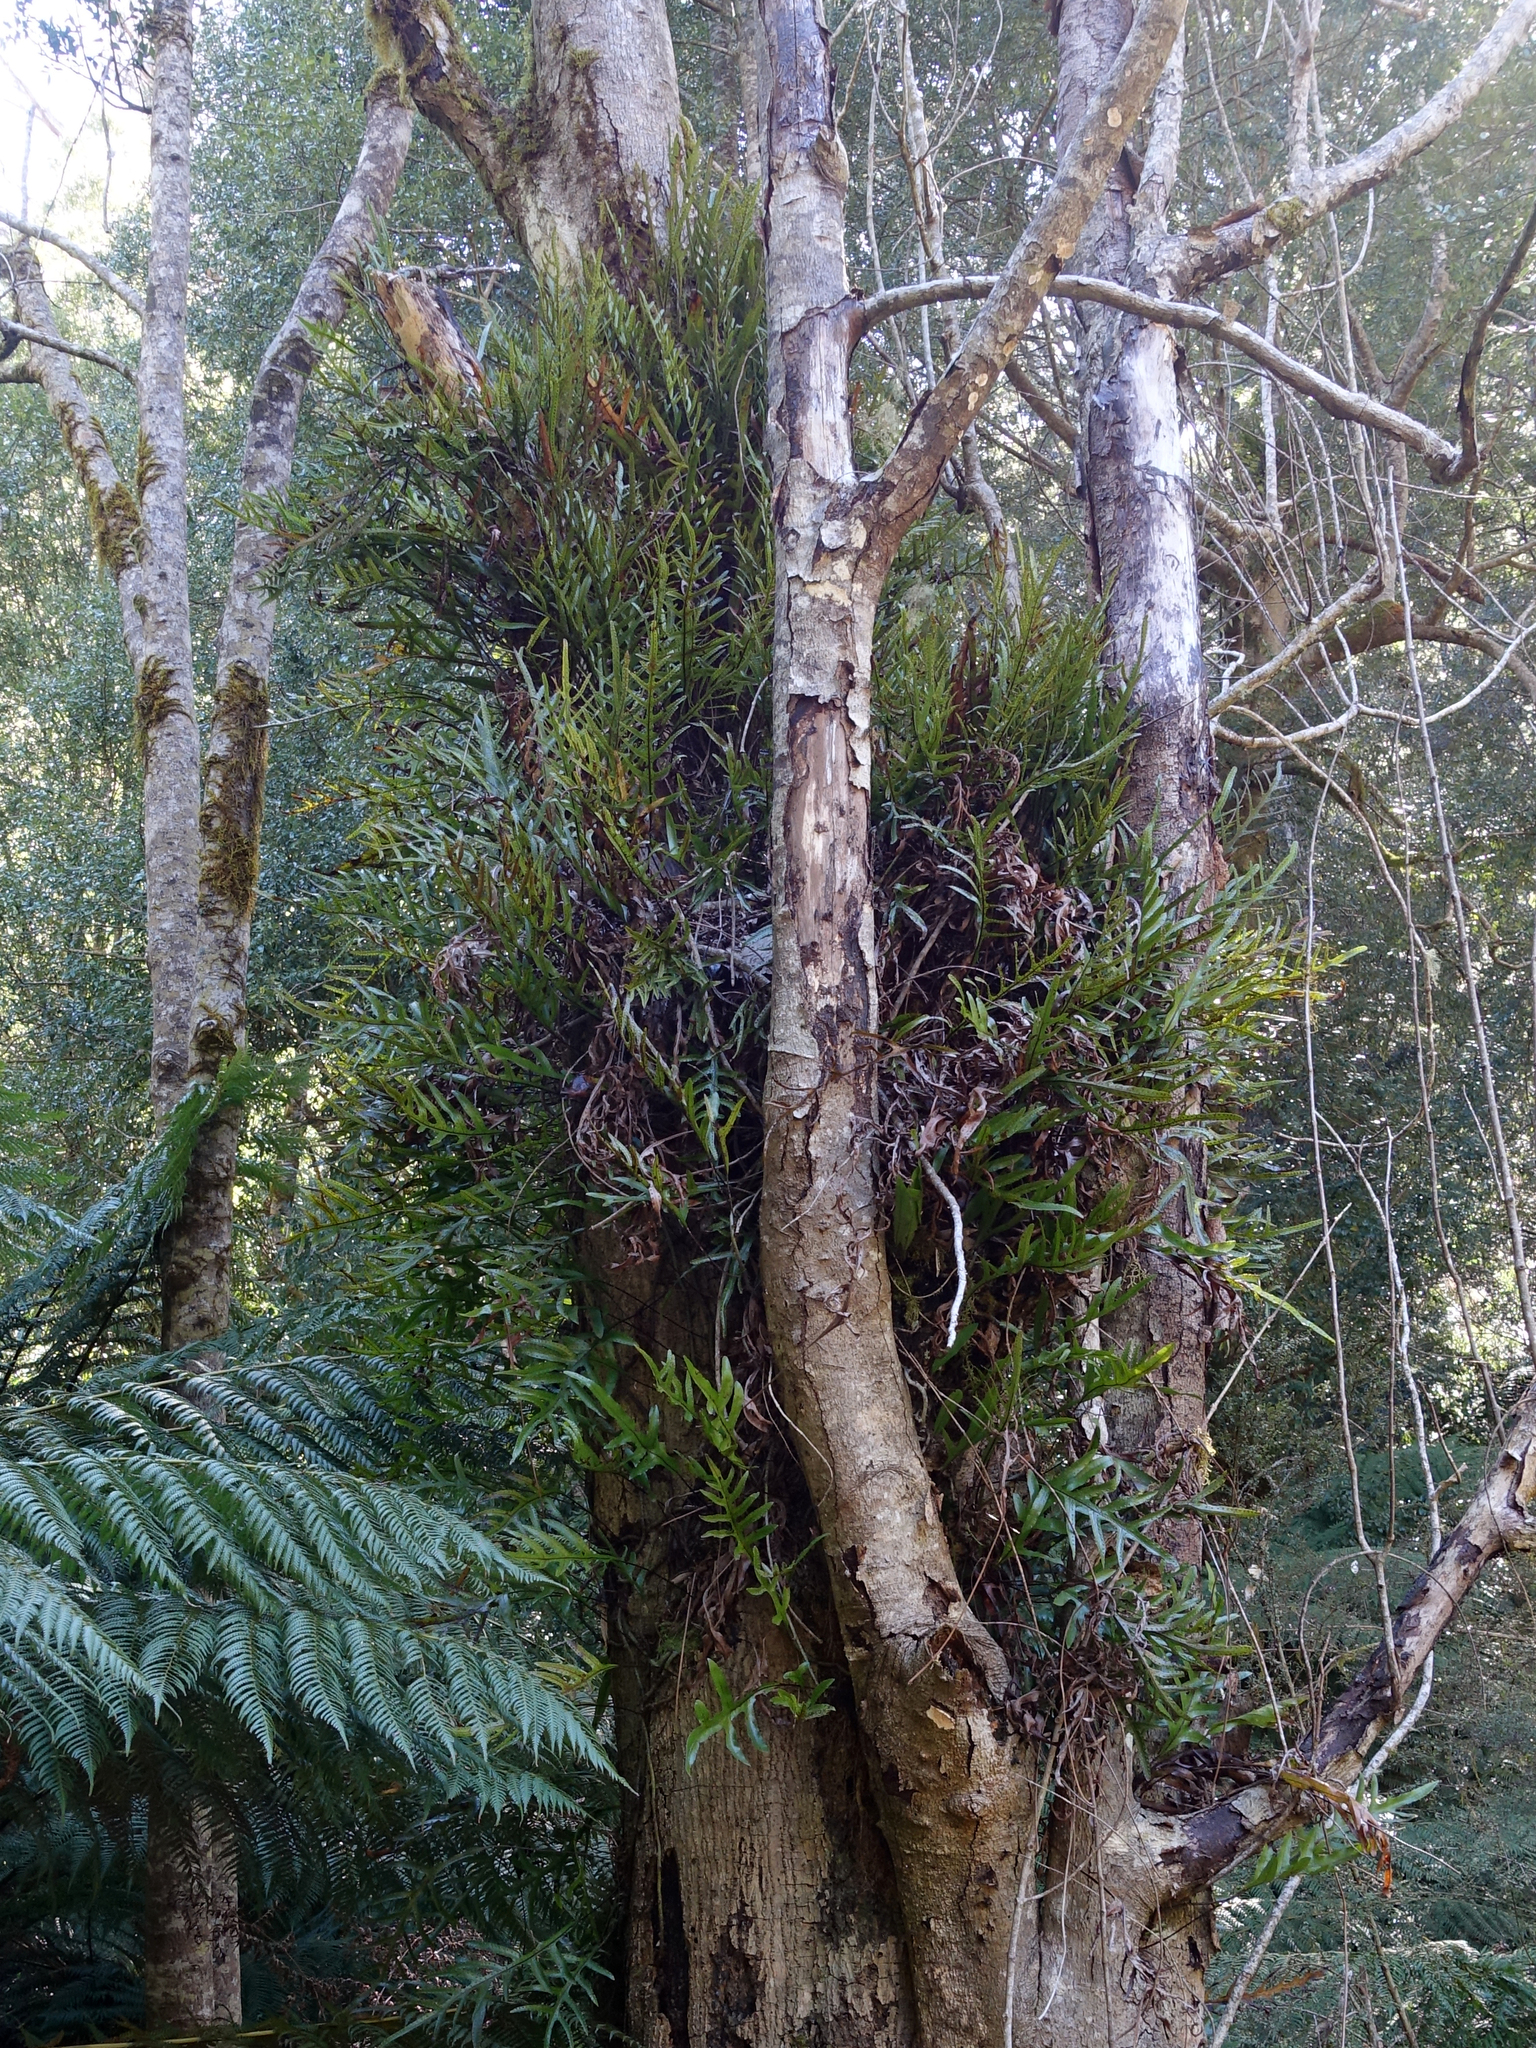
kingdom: Plantae
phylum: Tracheophyta
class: Polypodiopsida
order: Polypodiales
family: Polypodiaceae
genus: Lecanopteris
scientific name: Lecanopteris pustulata
